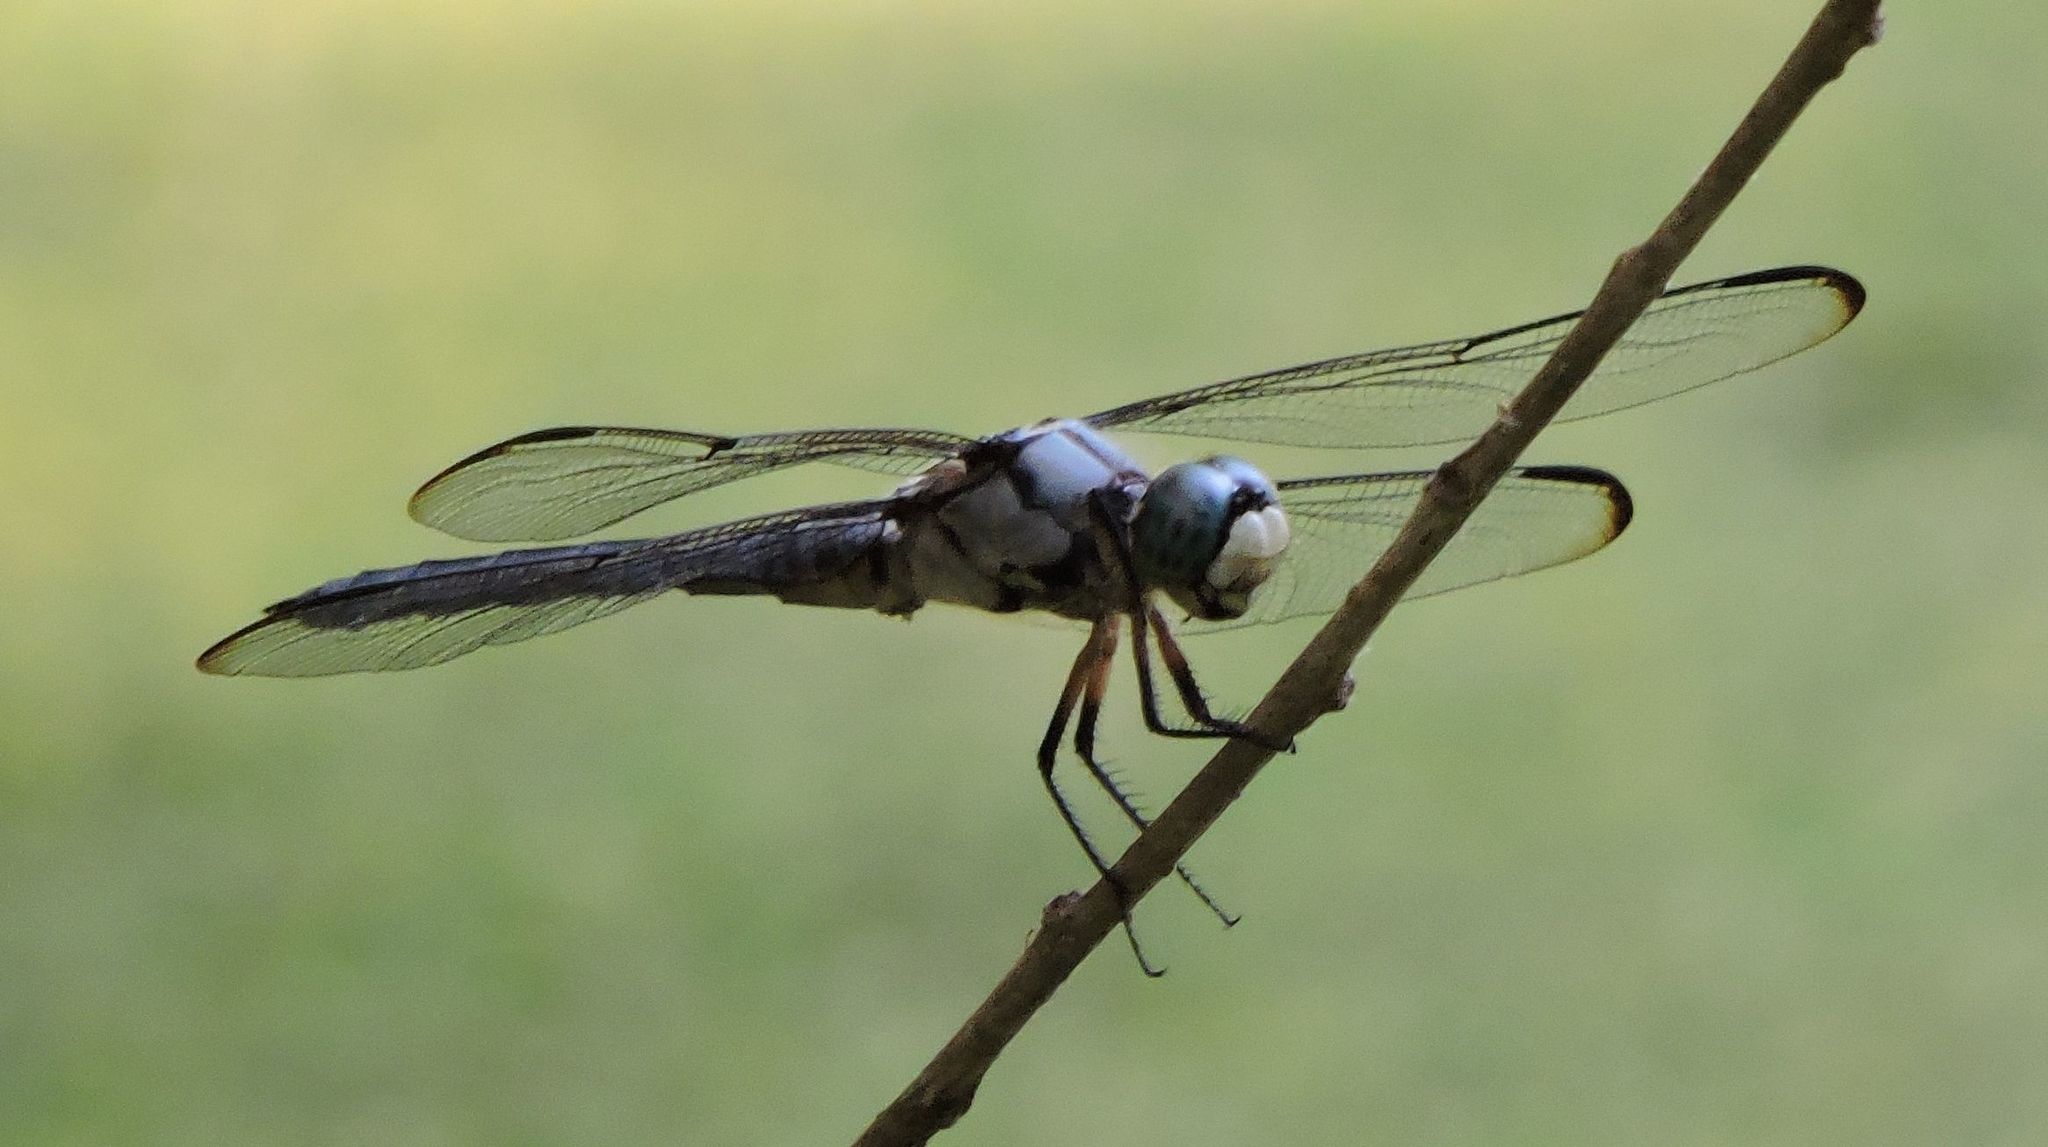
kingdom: Animalia
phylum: Arthropoda
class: Insecta
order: Odonata
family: Libellulidae
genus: Libellula
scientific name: Libellula vibrans
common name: Great blue skimmer
